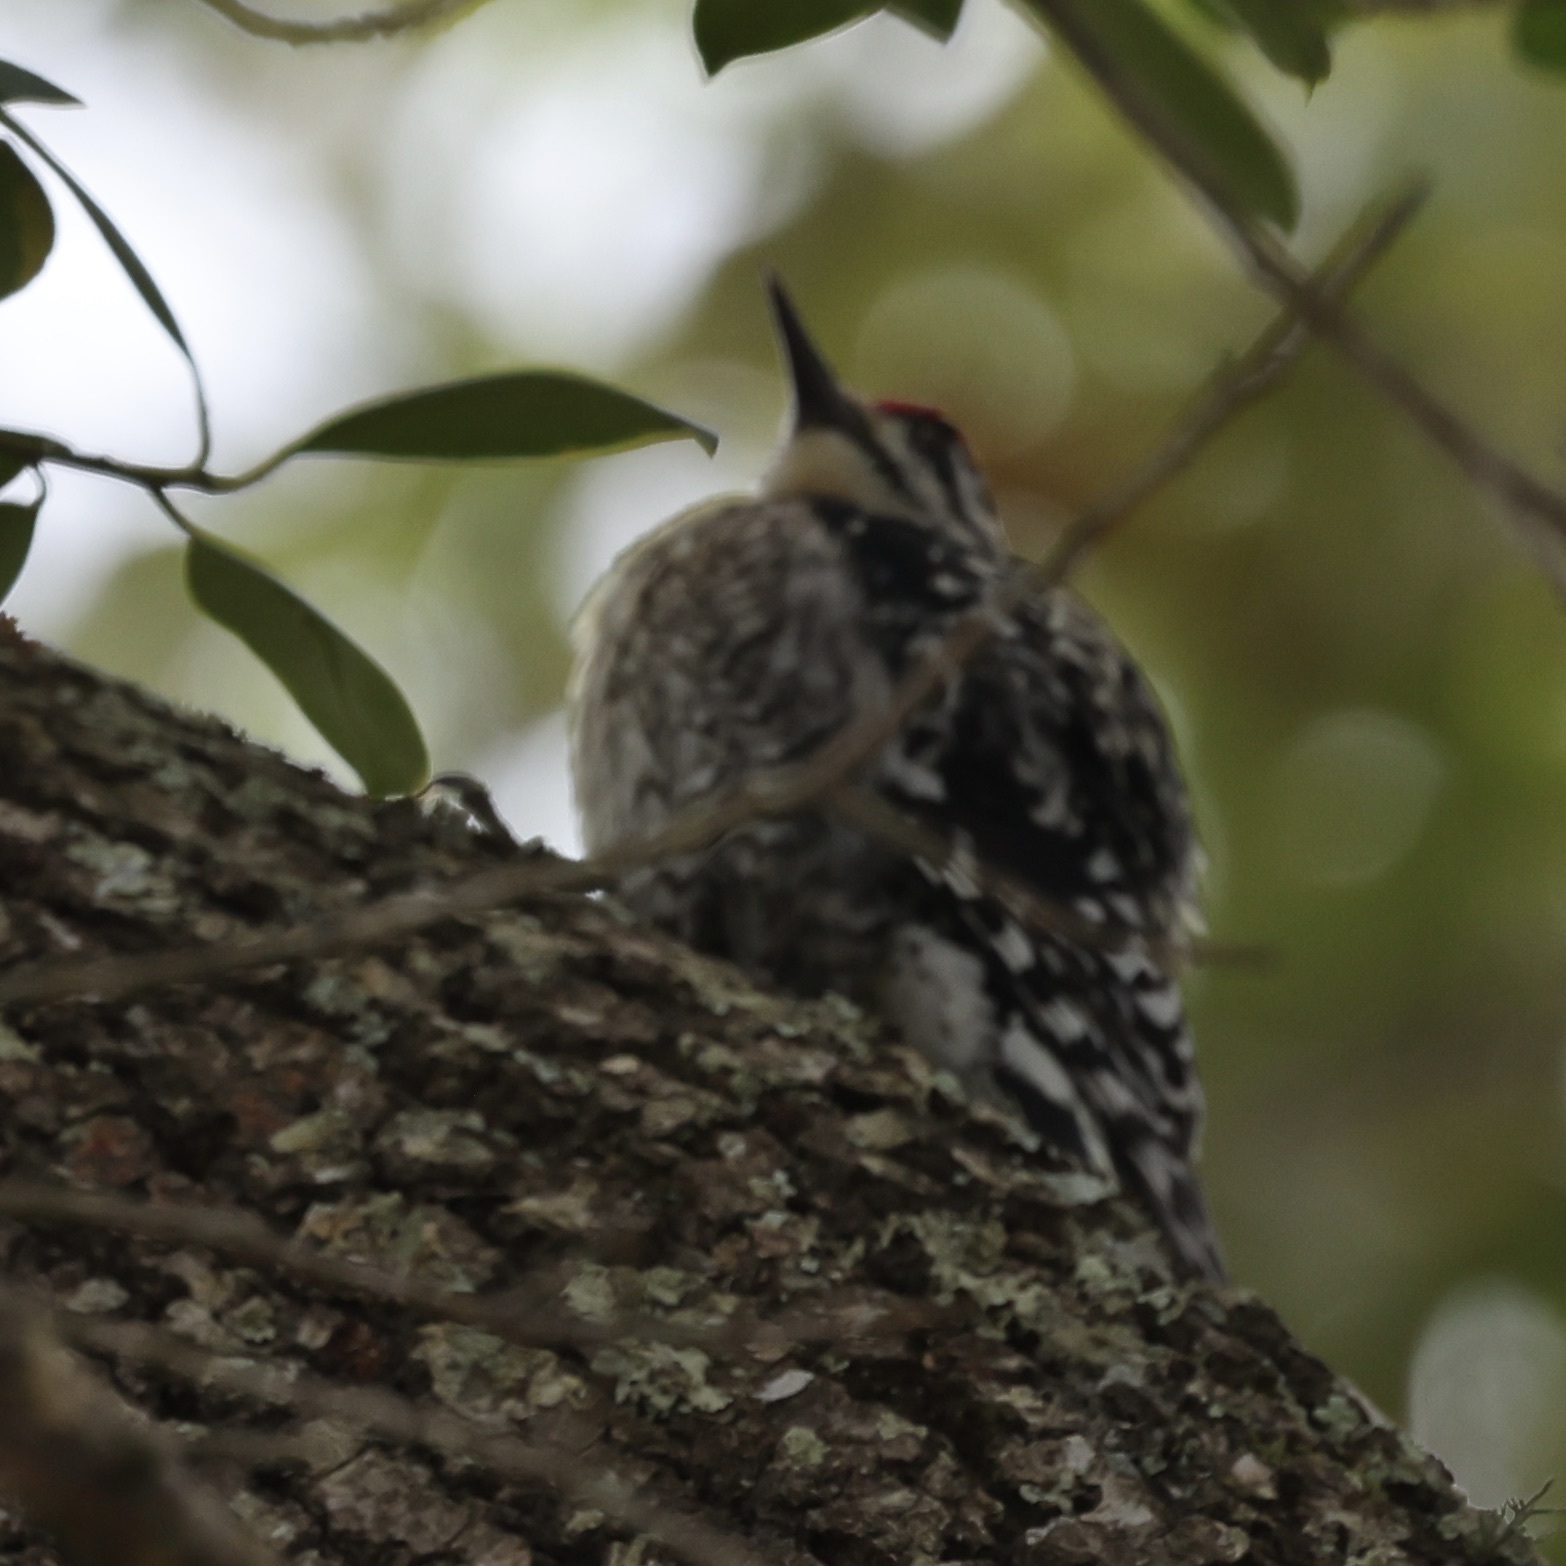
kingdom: Animalia
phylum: Chordata
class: Aves
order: Piciformes
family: Picidae
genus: Sphyrapicus
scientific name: Sphyrapicus varius
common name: Yellow-bellied sapsucker
